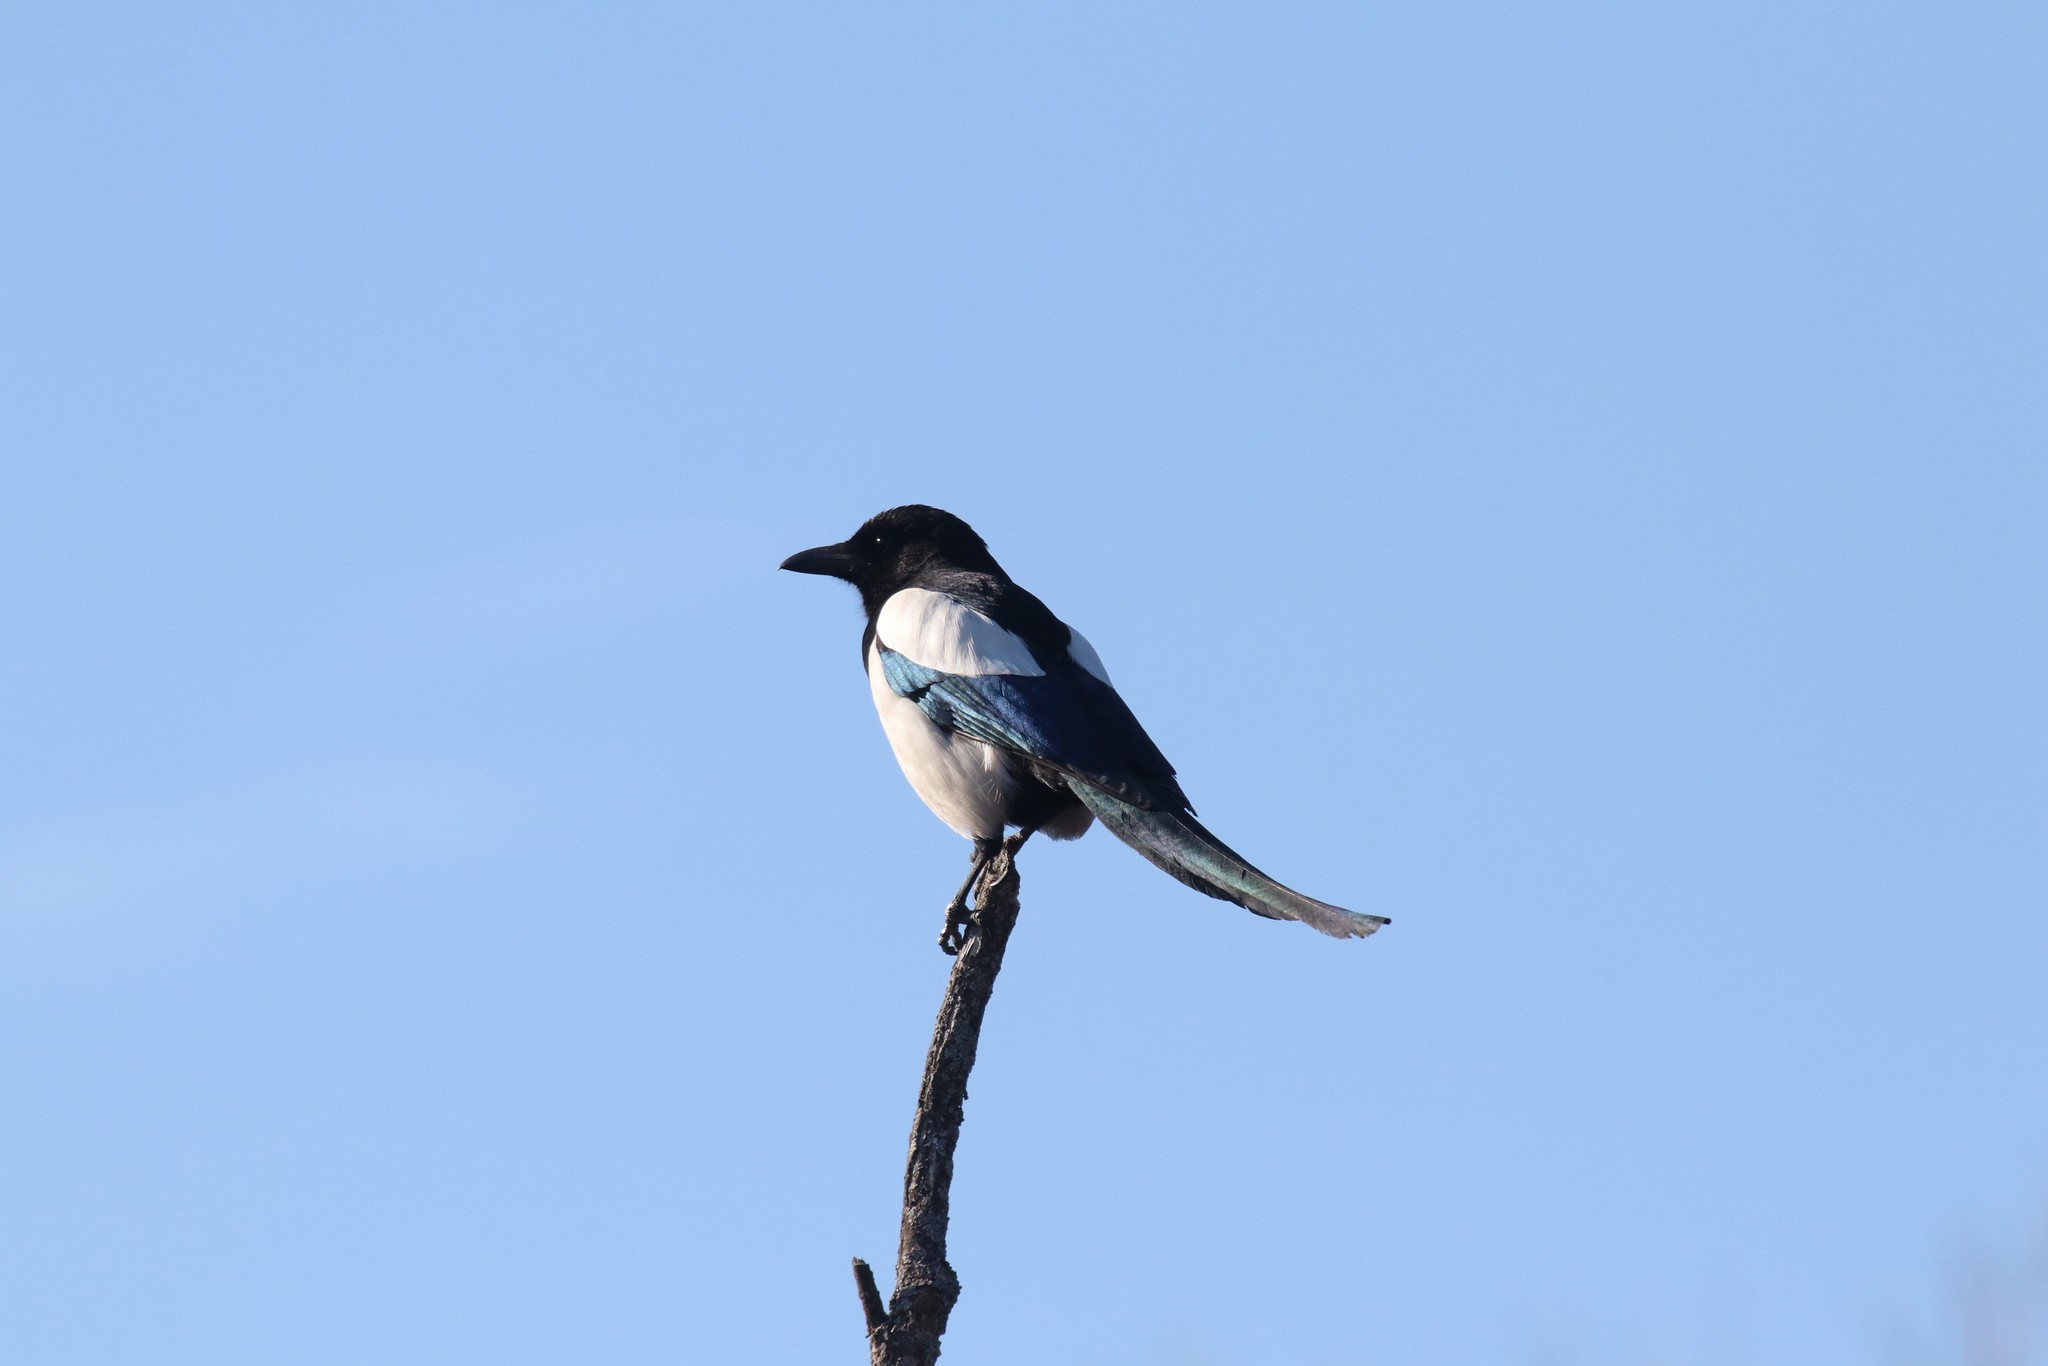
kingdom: Animalia
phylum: Chordata
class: Aves
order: Passeriformes
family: Corvidae
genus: Pica
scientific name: Pica pica
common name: Eurasian magpie
